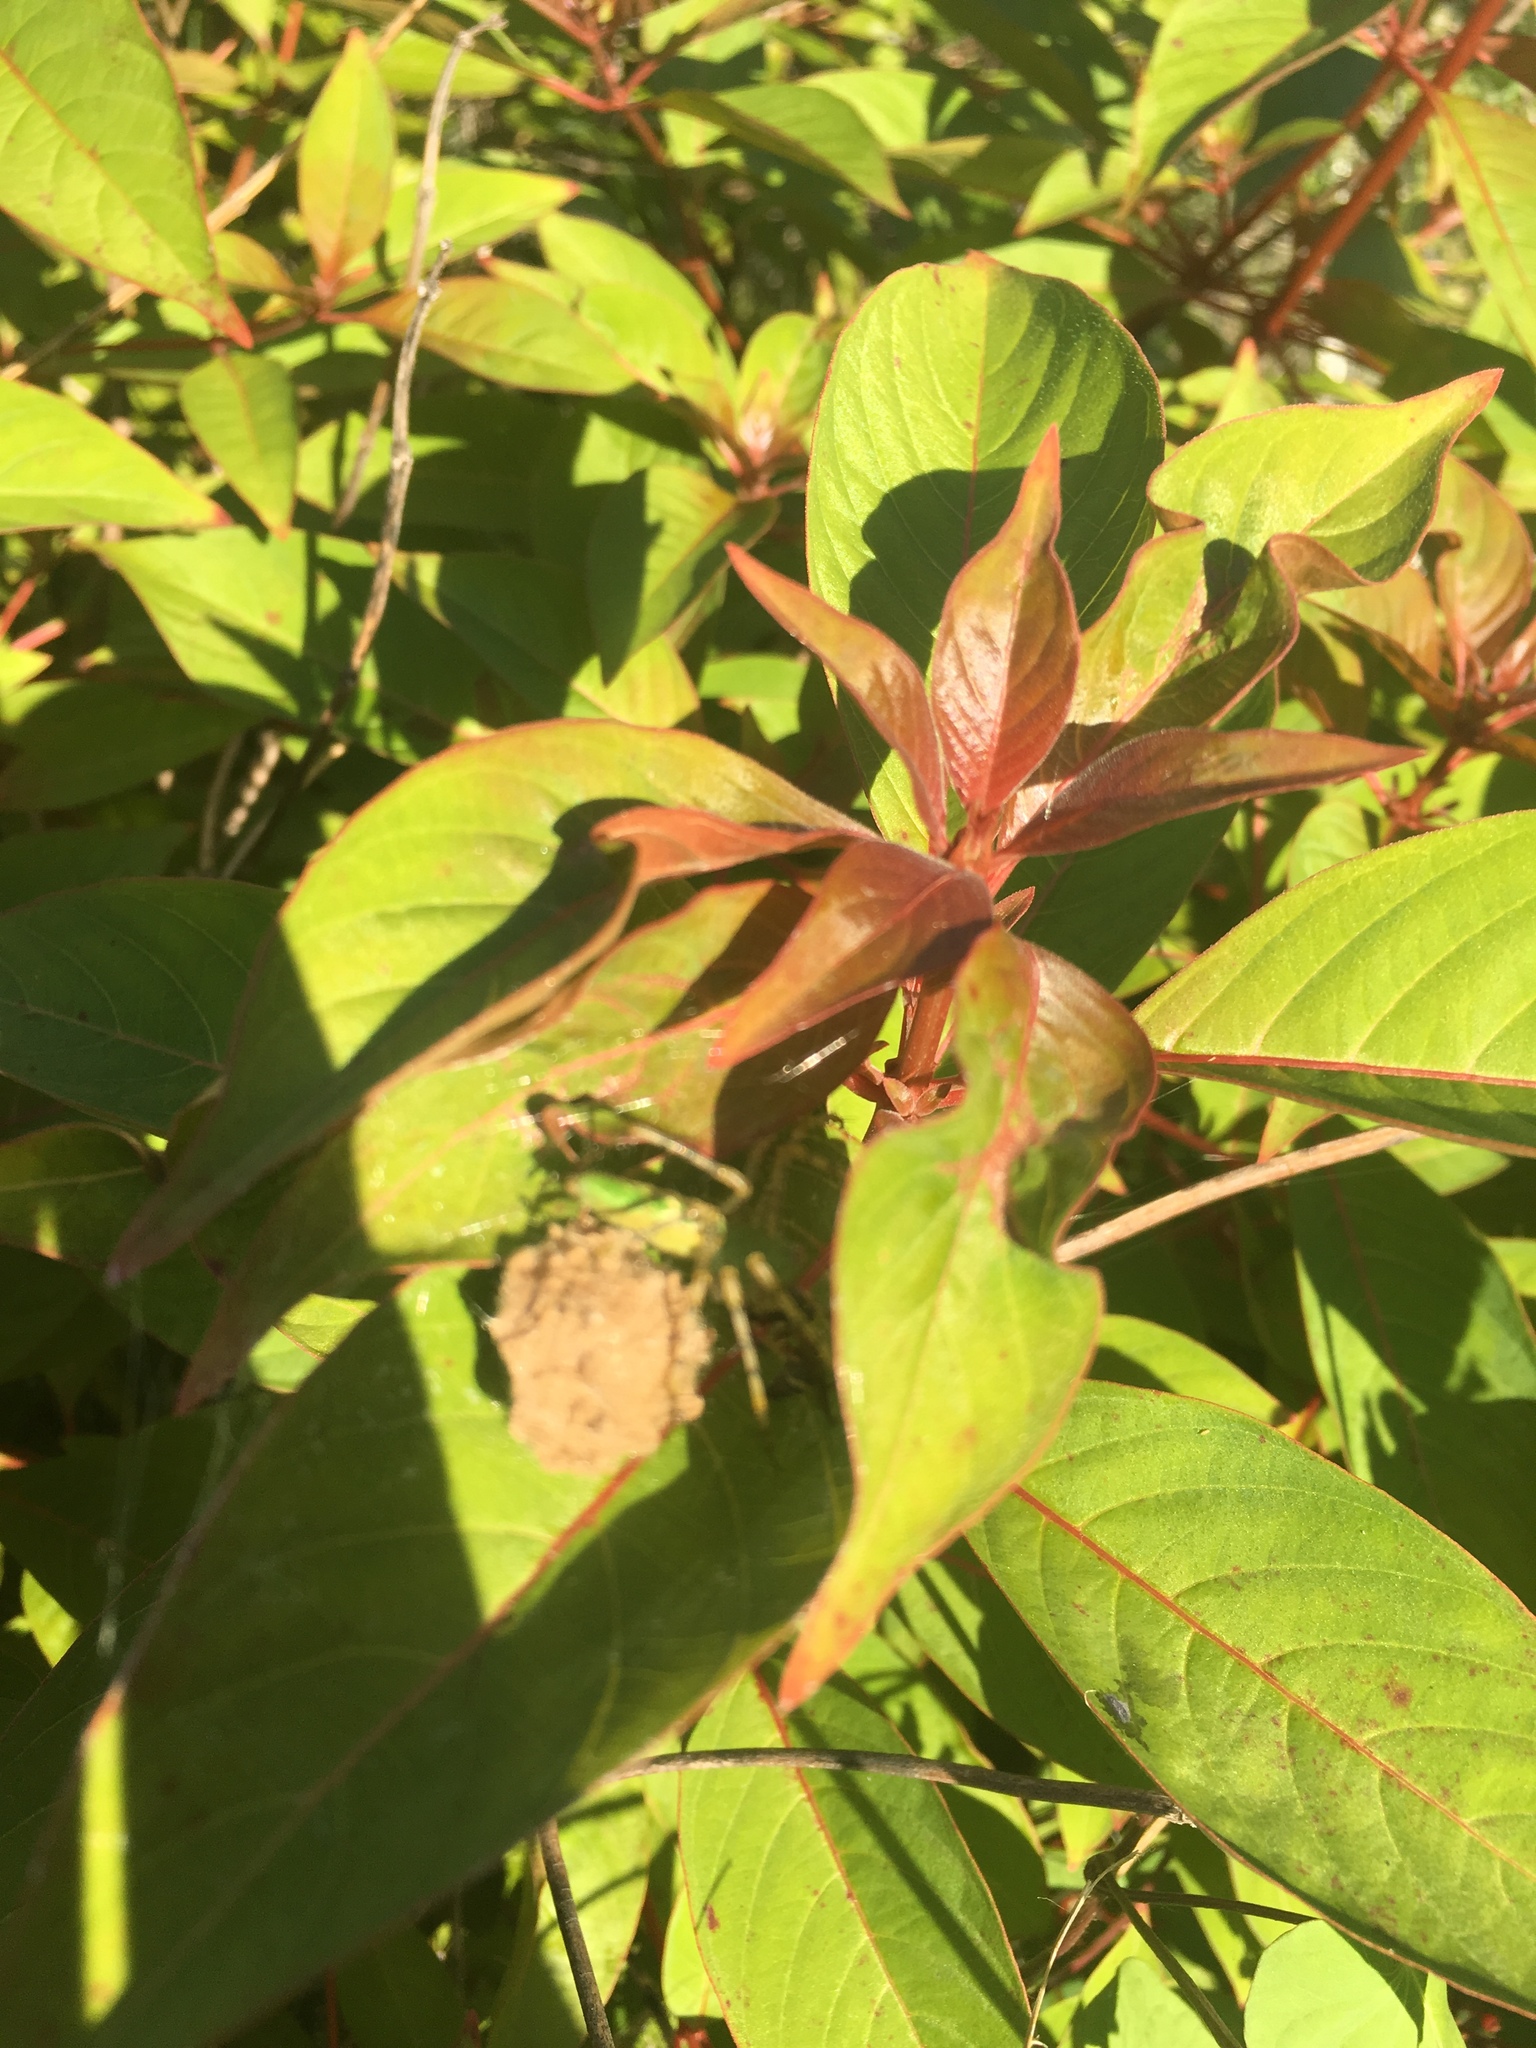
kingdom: Animalia
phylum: Arthropoda
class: Arachnida
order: Araneae
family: Oxyopidae
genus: Peucetia
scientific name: Peucetia viridans
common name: Lynx spiders
